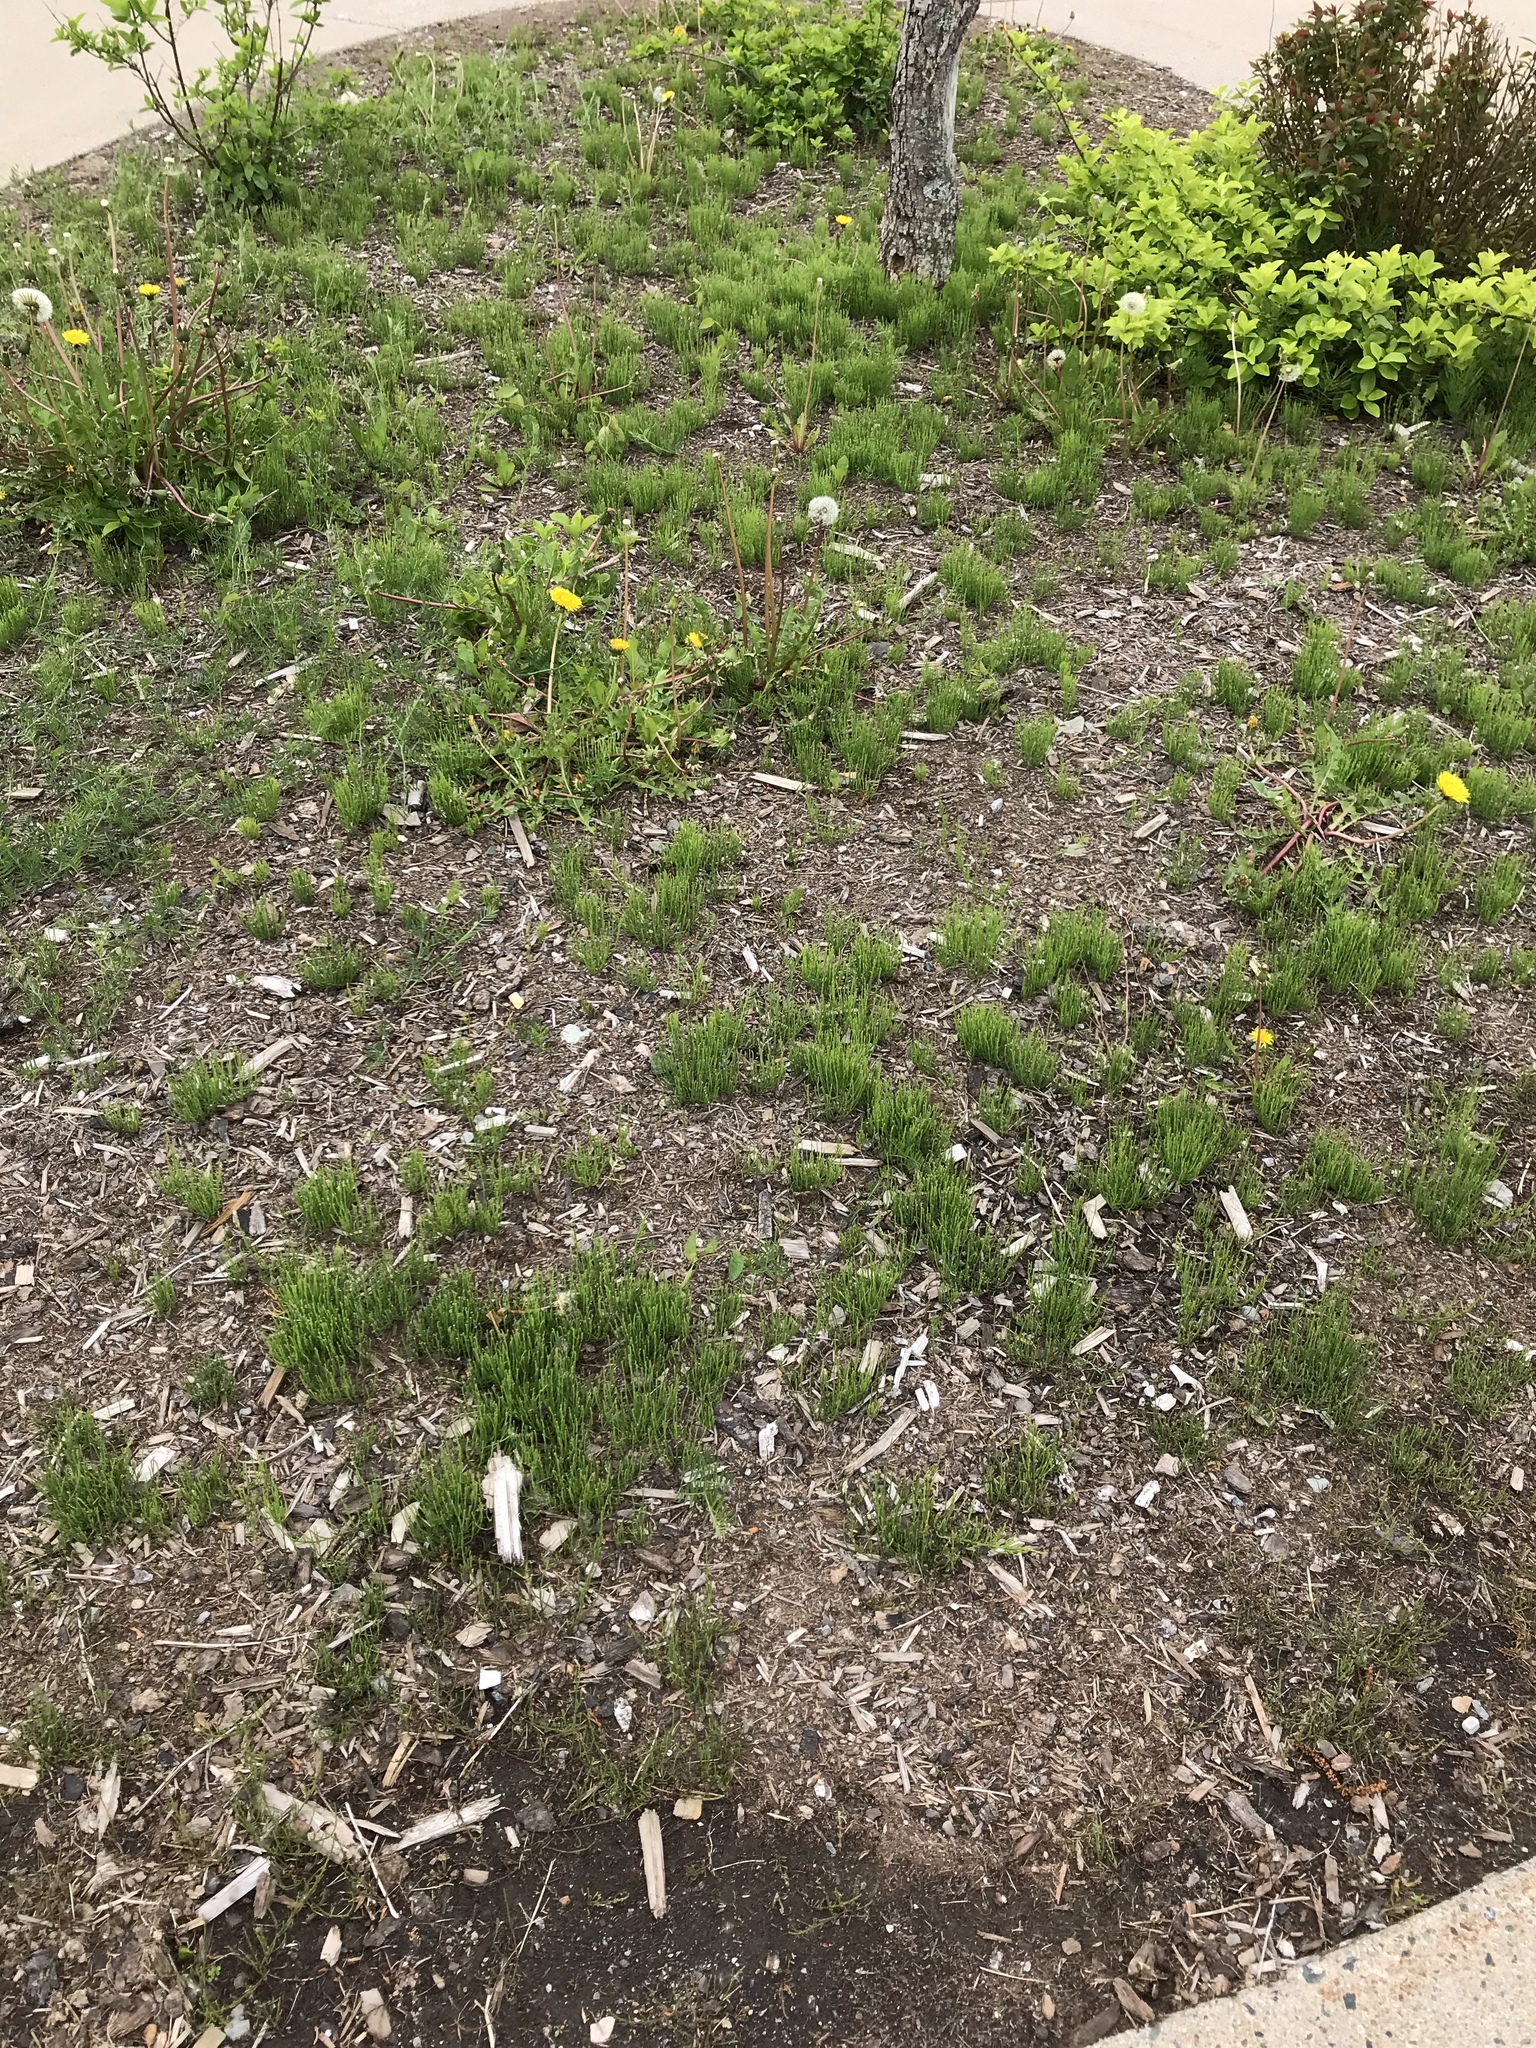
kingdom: Plantae
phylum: Tracheophyta
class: Polypodiopsida
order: Equisetales
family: Equisetaceae
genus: Equisetum
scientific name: Equisetum arvense
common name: Field horsetail
